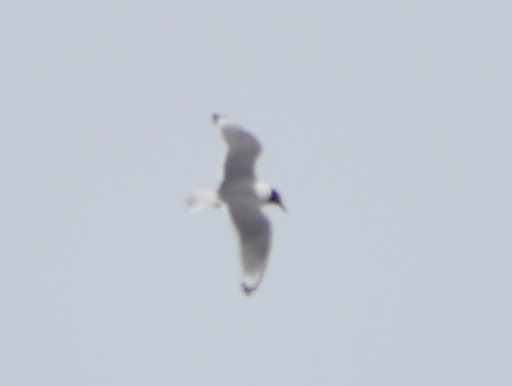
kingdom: Animalia
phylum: Chordata
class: Aves
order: Charadriiformes
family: Laridae
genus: Leucophaeus
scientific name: Leucophaeus pipixcan
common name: Franklin's gull
